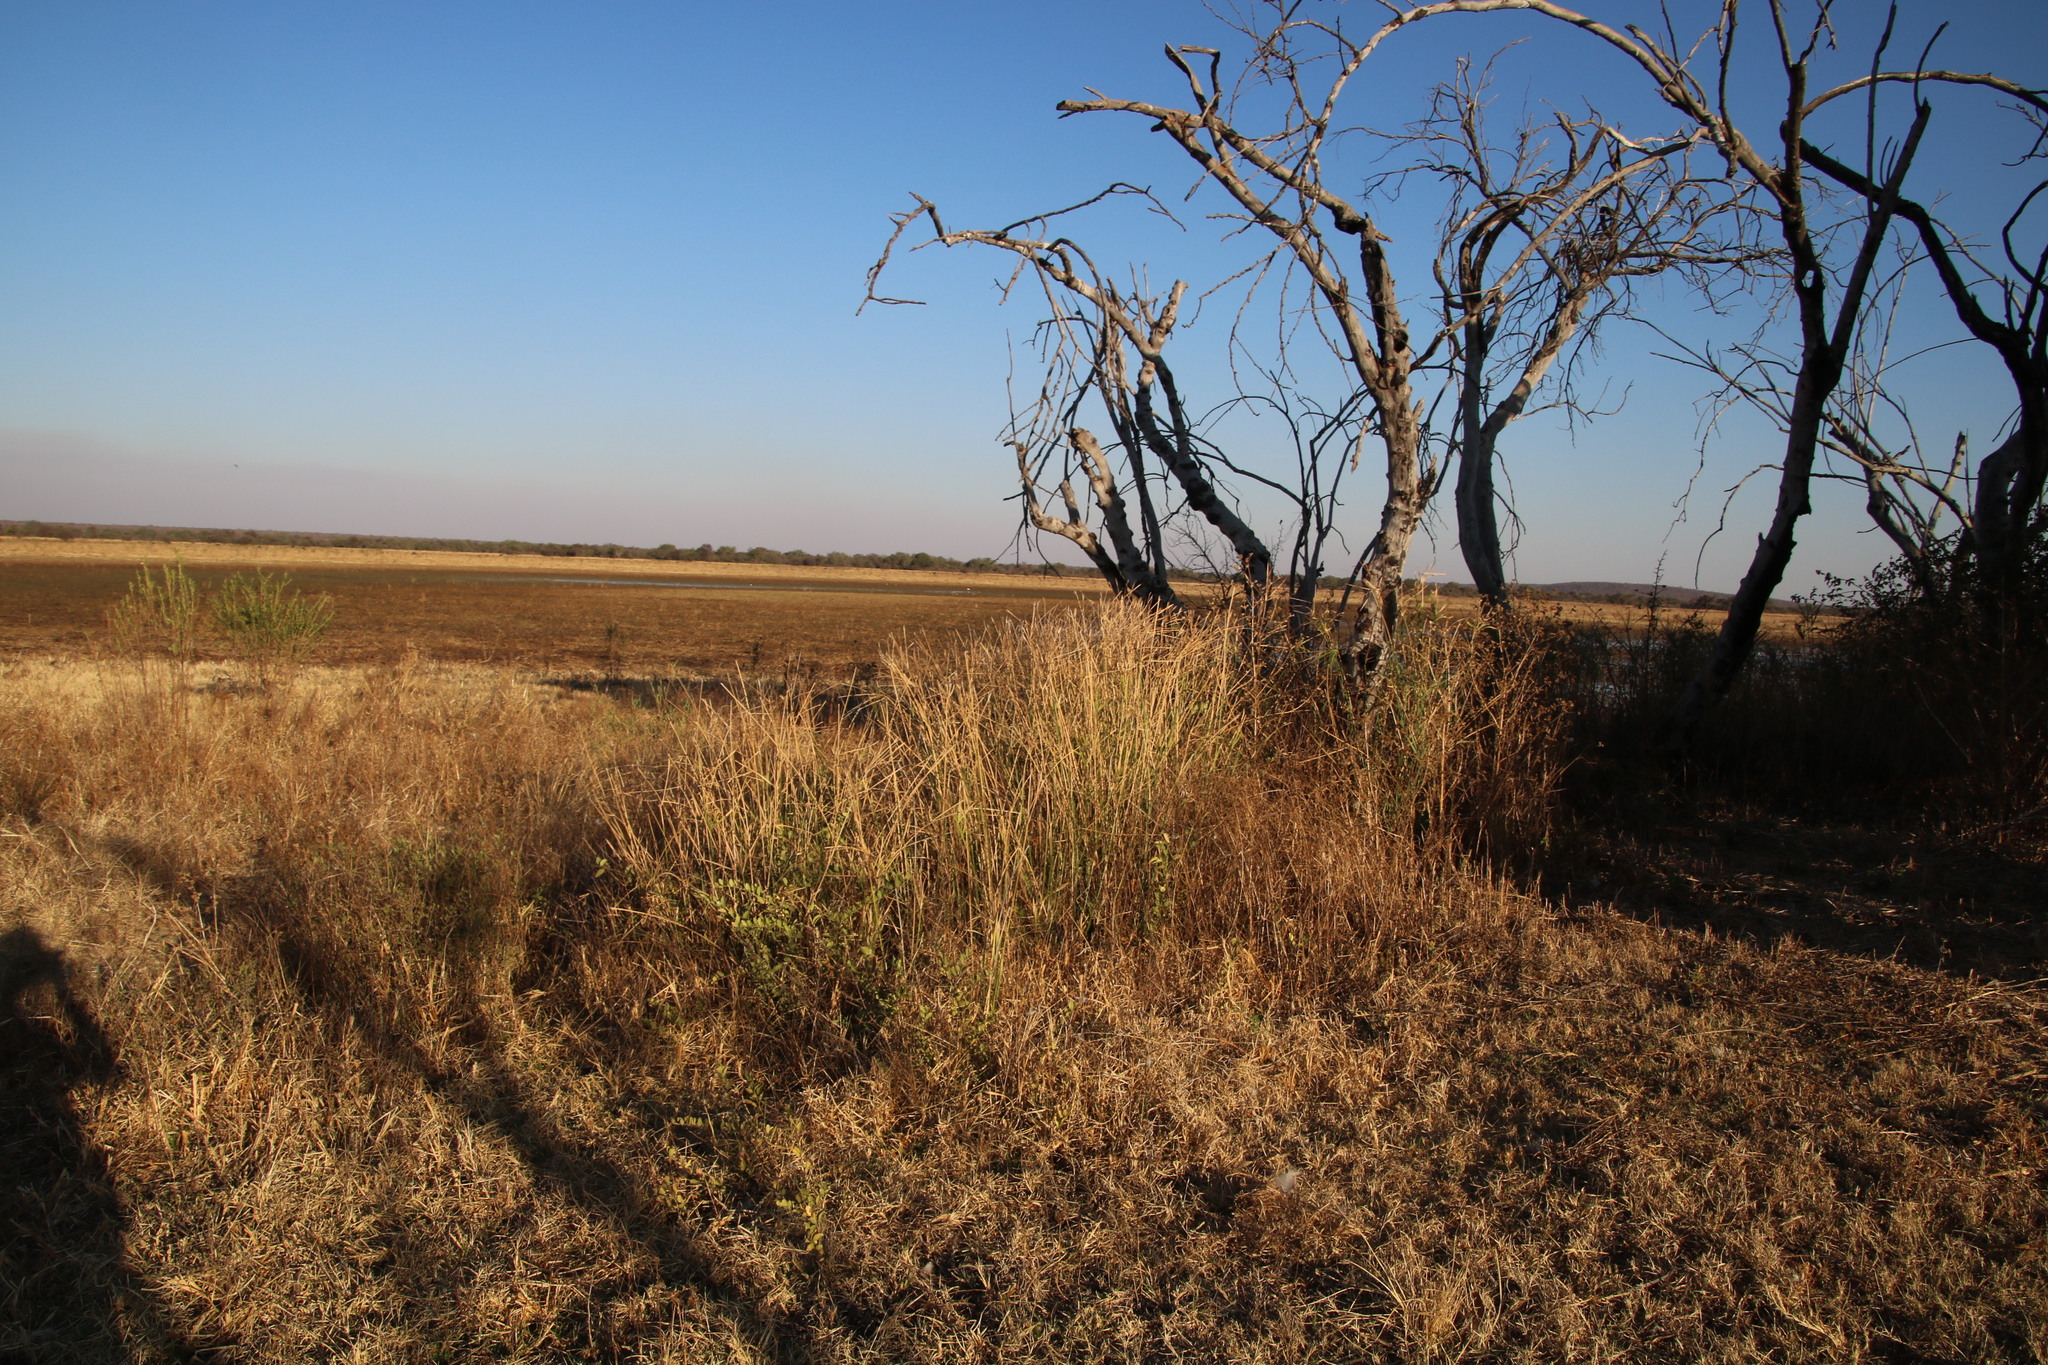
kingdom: Plantae
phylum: Tracheophyta
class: Liliopsida
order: Poales
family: Cyperaceae
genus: Cyperus
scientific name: Cyperus sexangularis
